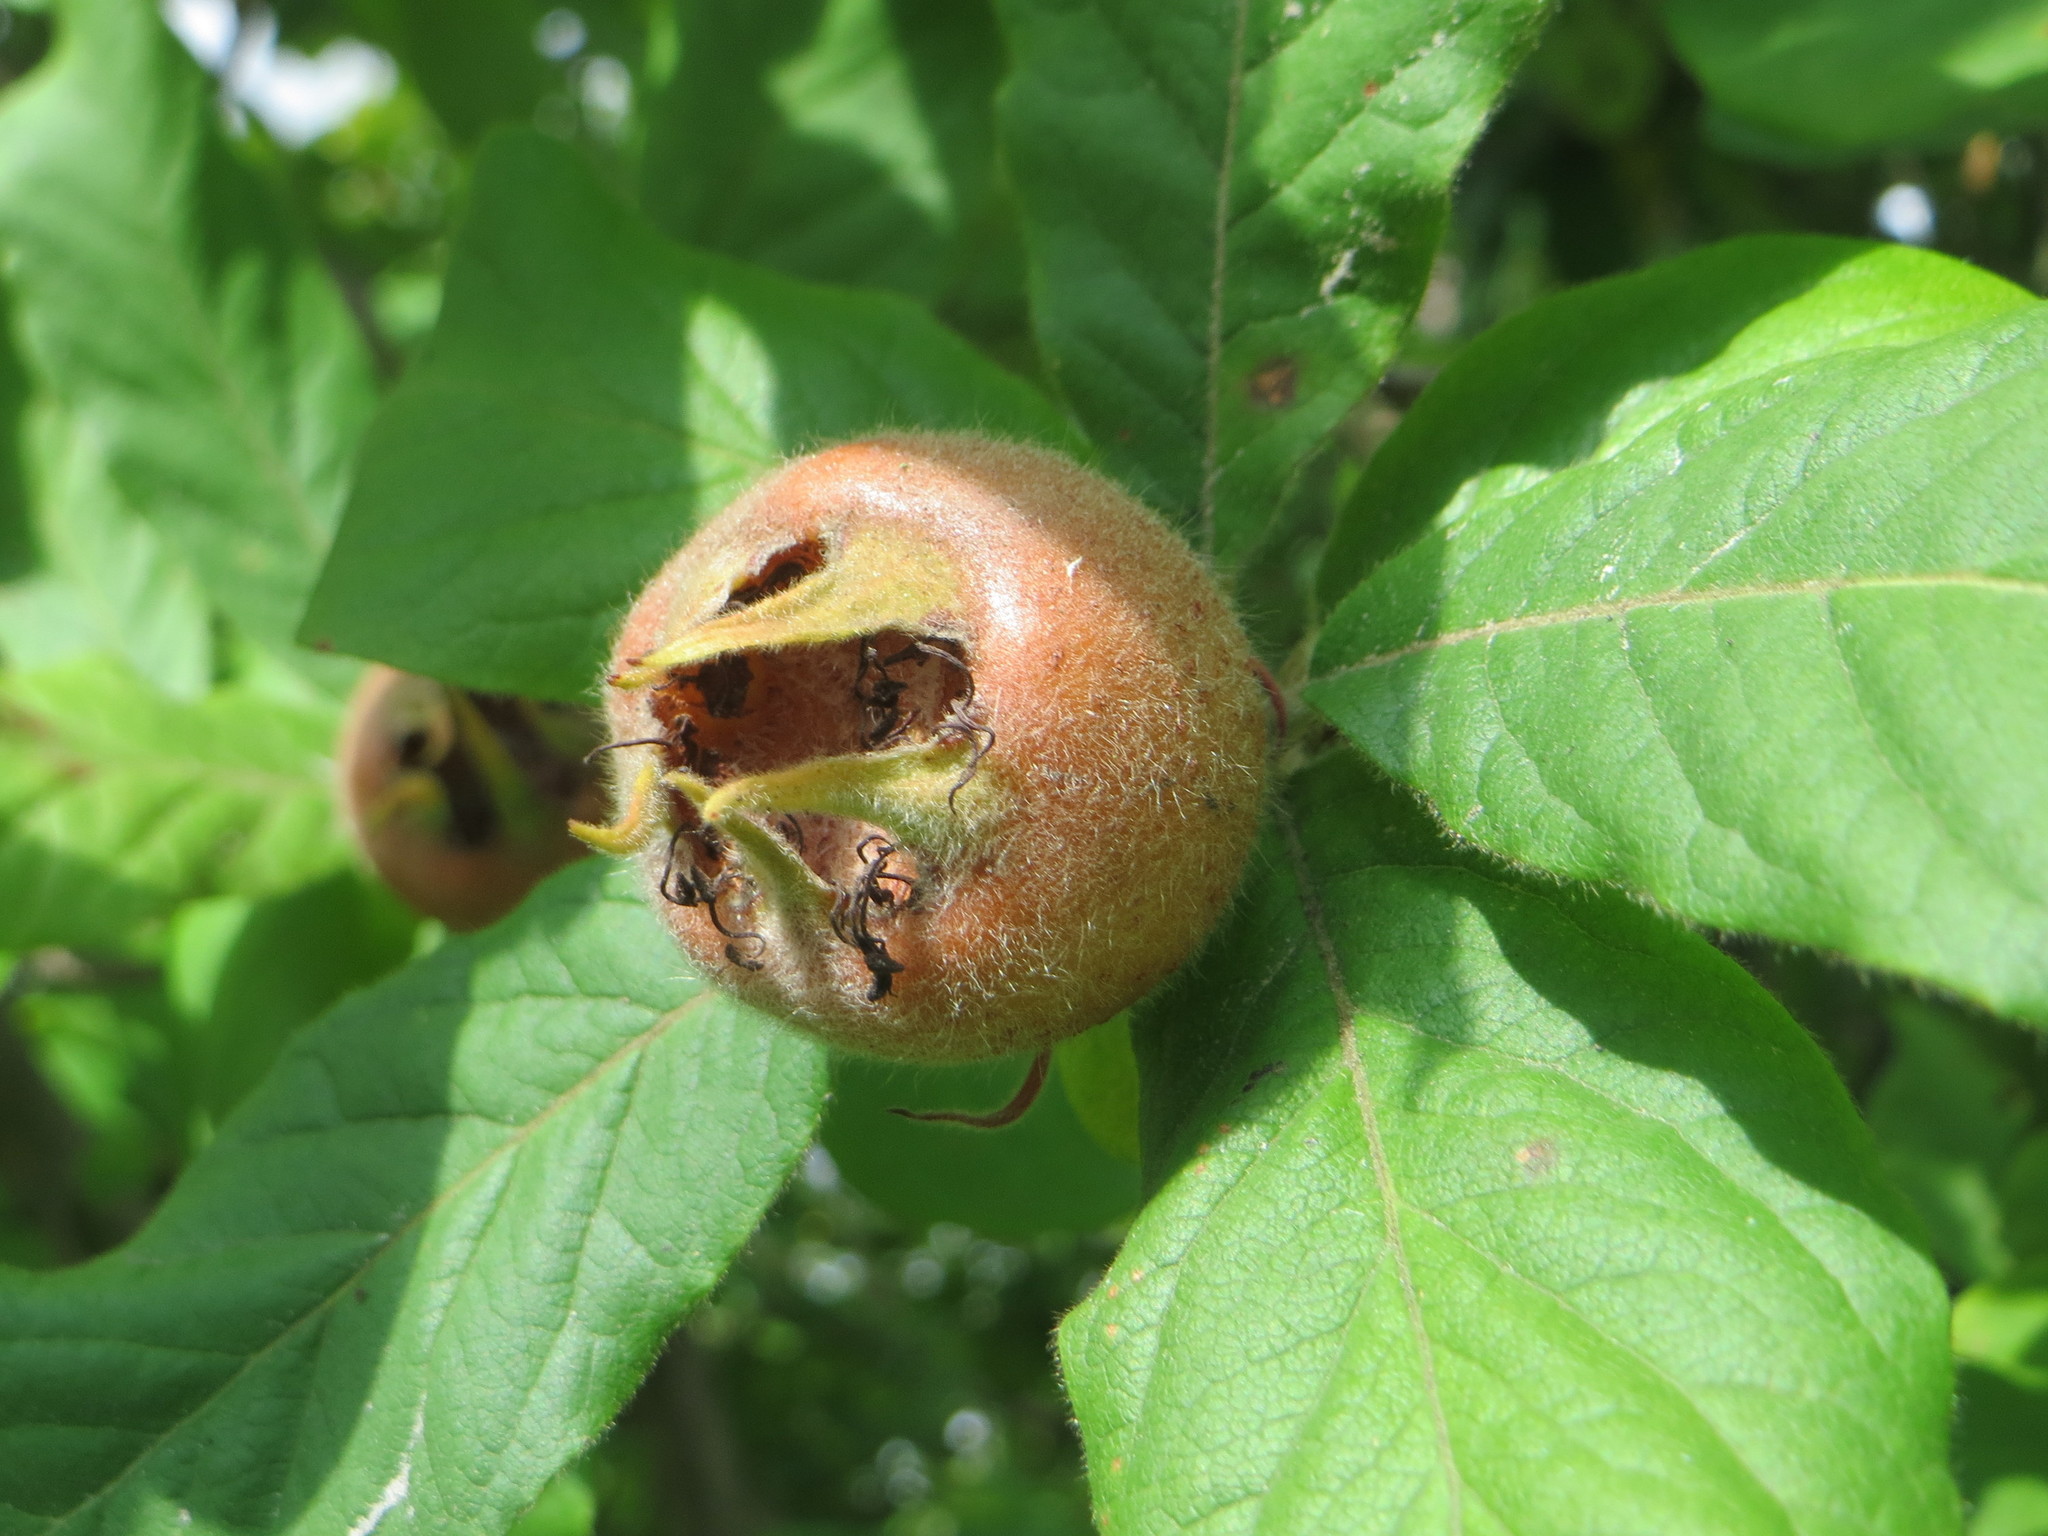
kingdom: Plantae
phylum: Tracheophyta
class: Magnoliopsida
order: Rosales
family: Rosaceae
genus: Mespilus
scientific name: Mespilus germanica
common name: Medlar
